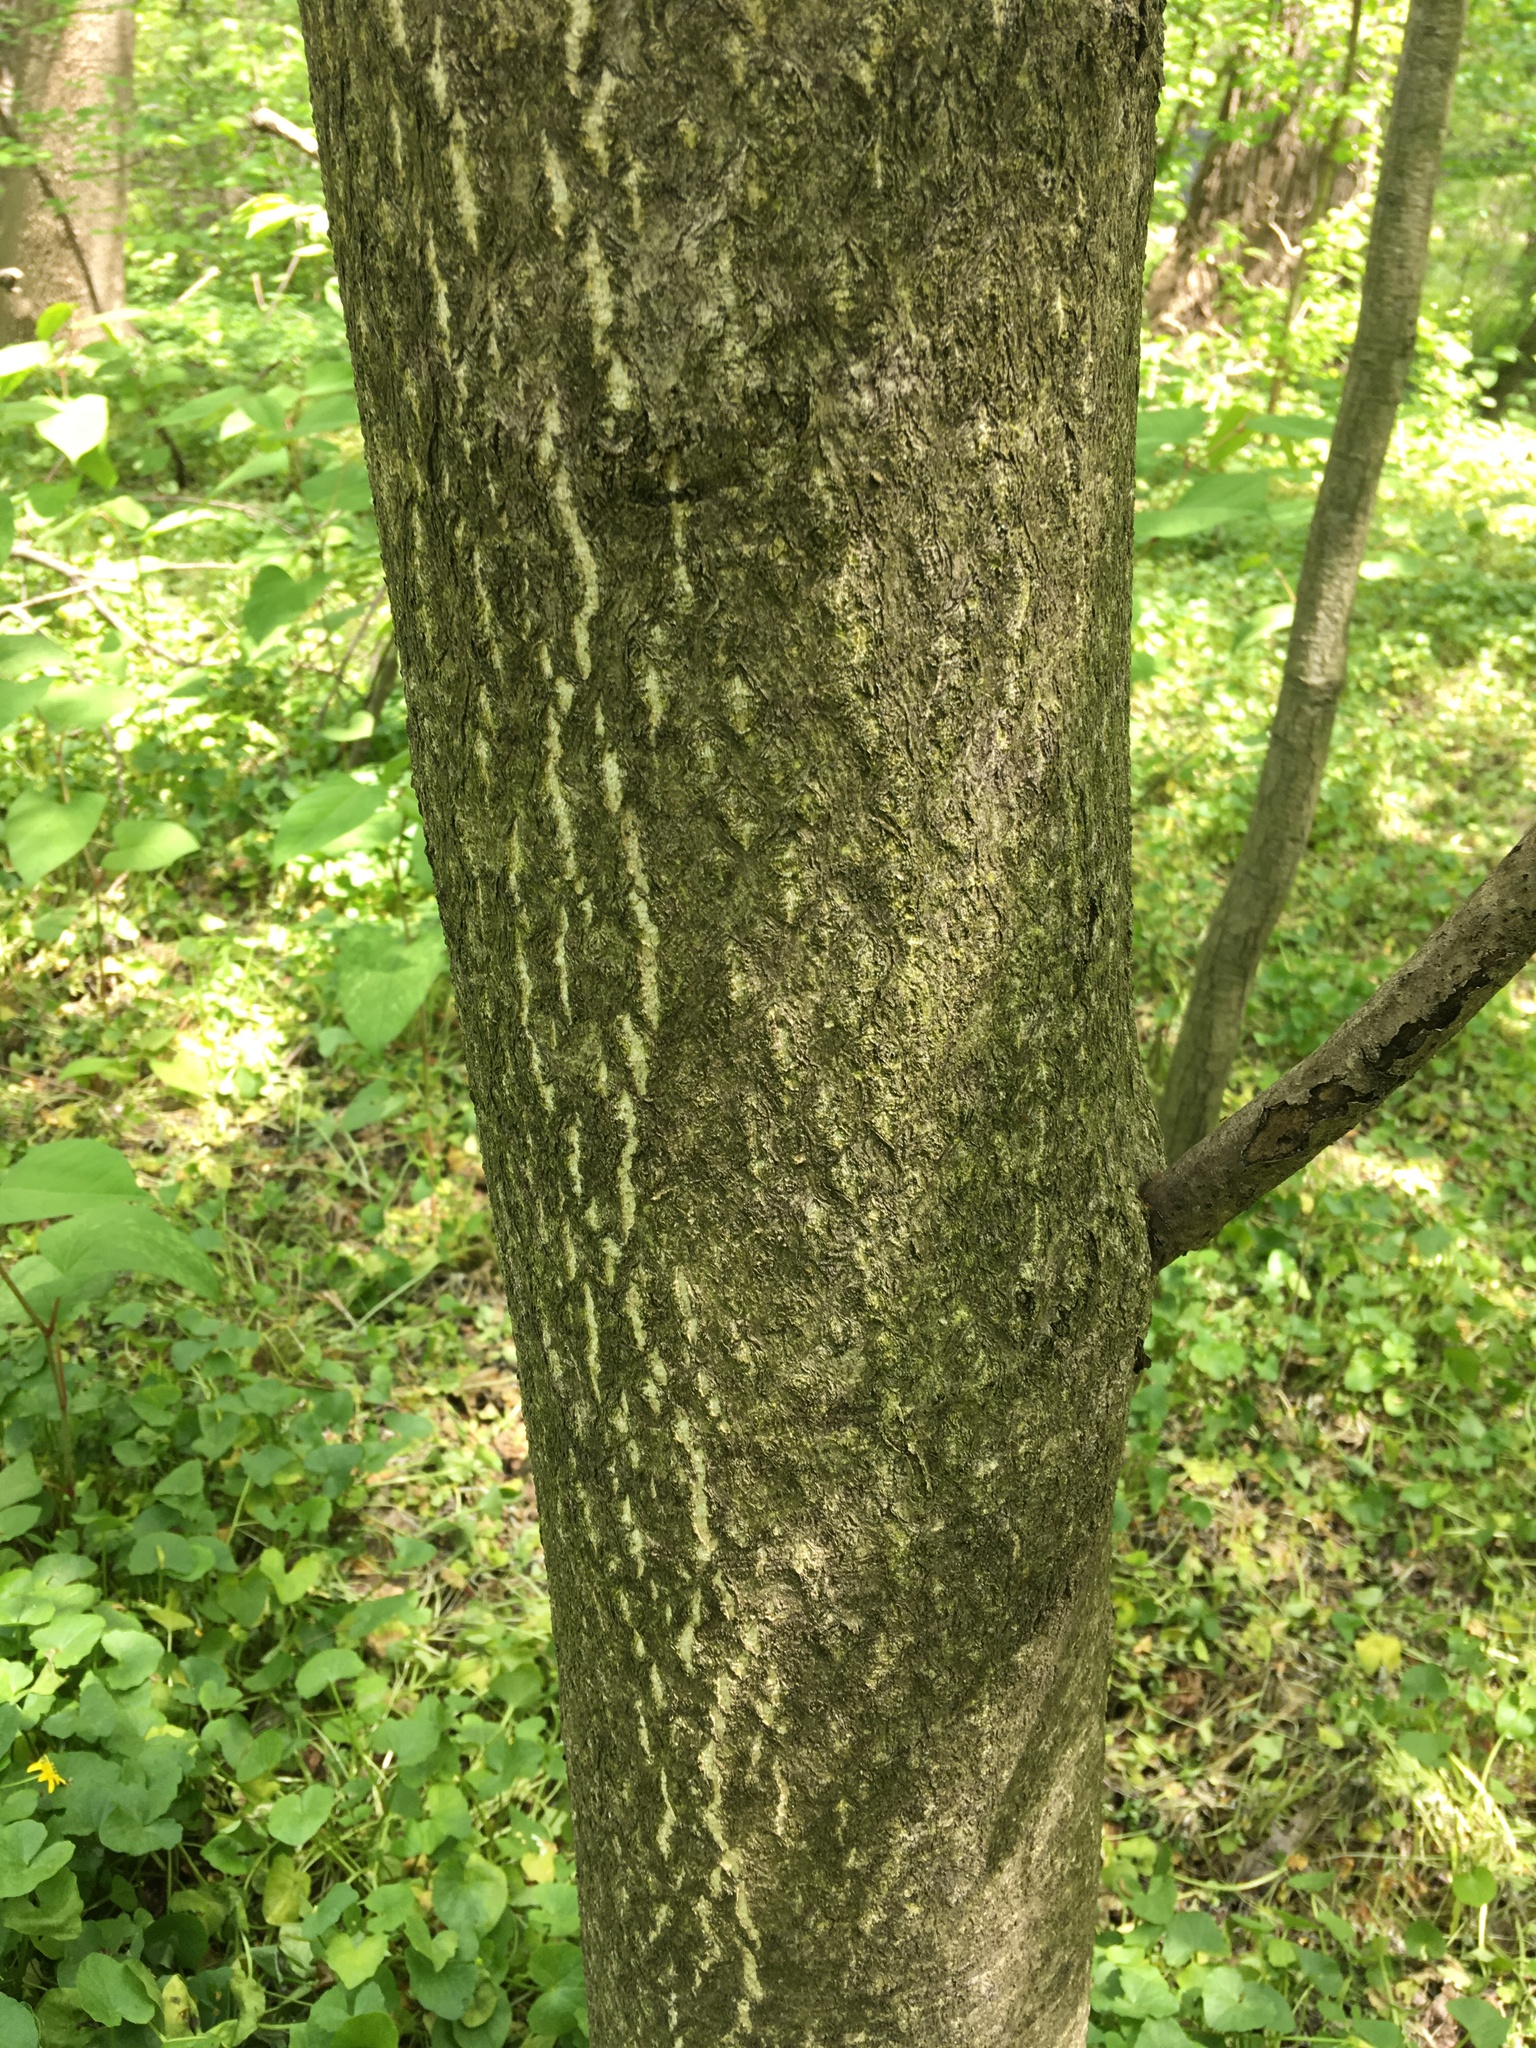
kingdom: Plantae
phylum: Tracheophyta
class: Magnoliopsida
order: Sapindales
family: Simaroubaceae
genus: Ailanthus
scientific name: Ailanthus altissima
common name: Tree-of-heaven
